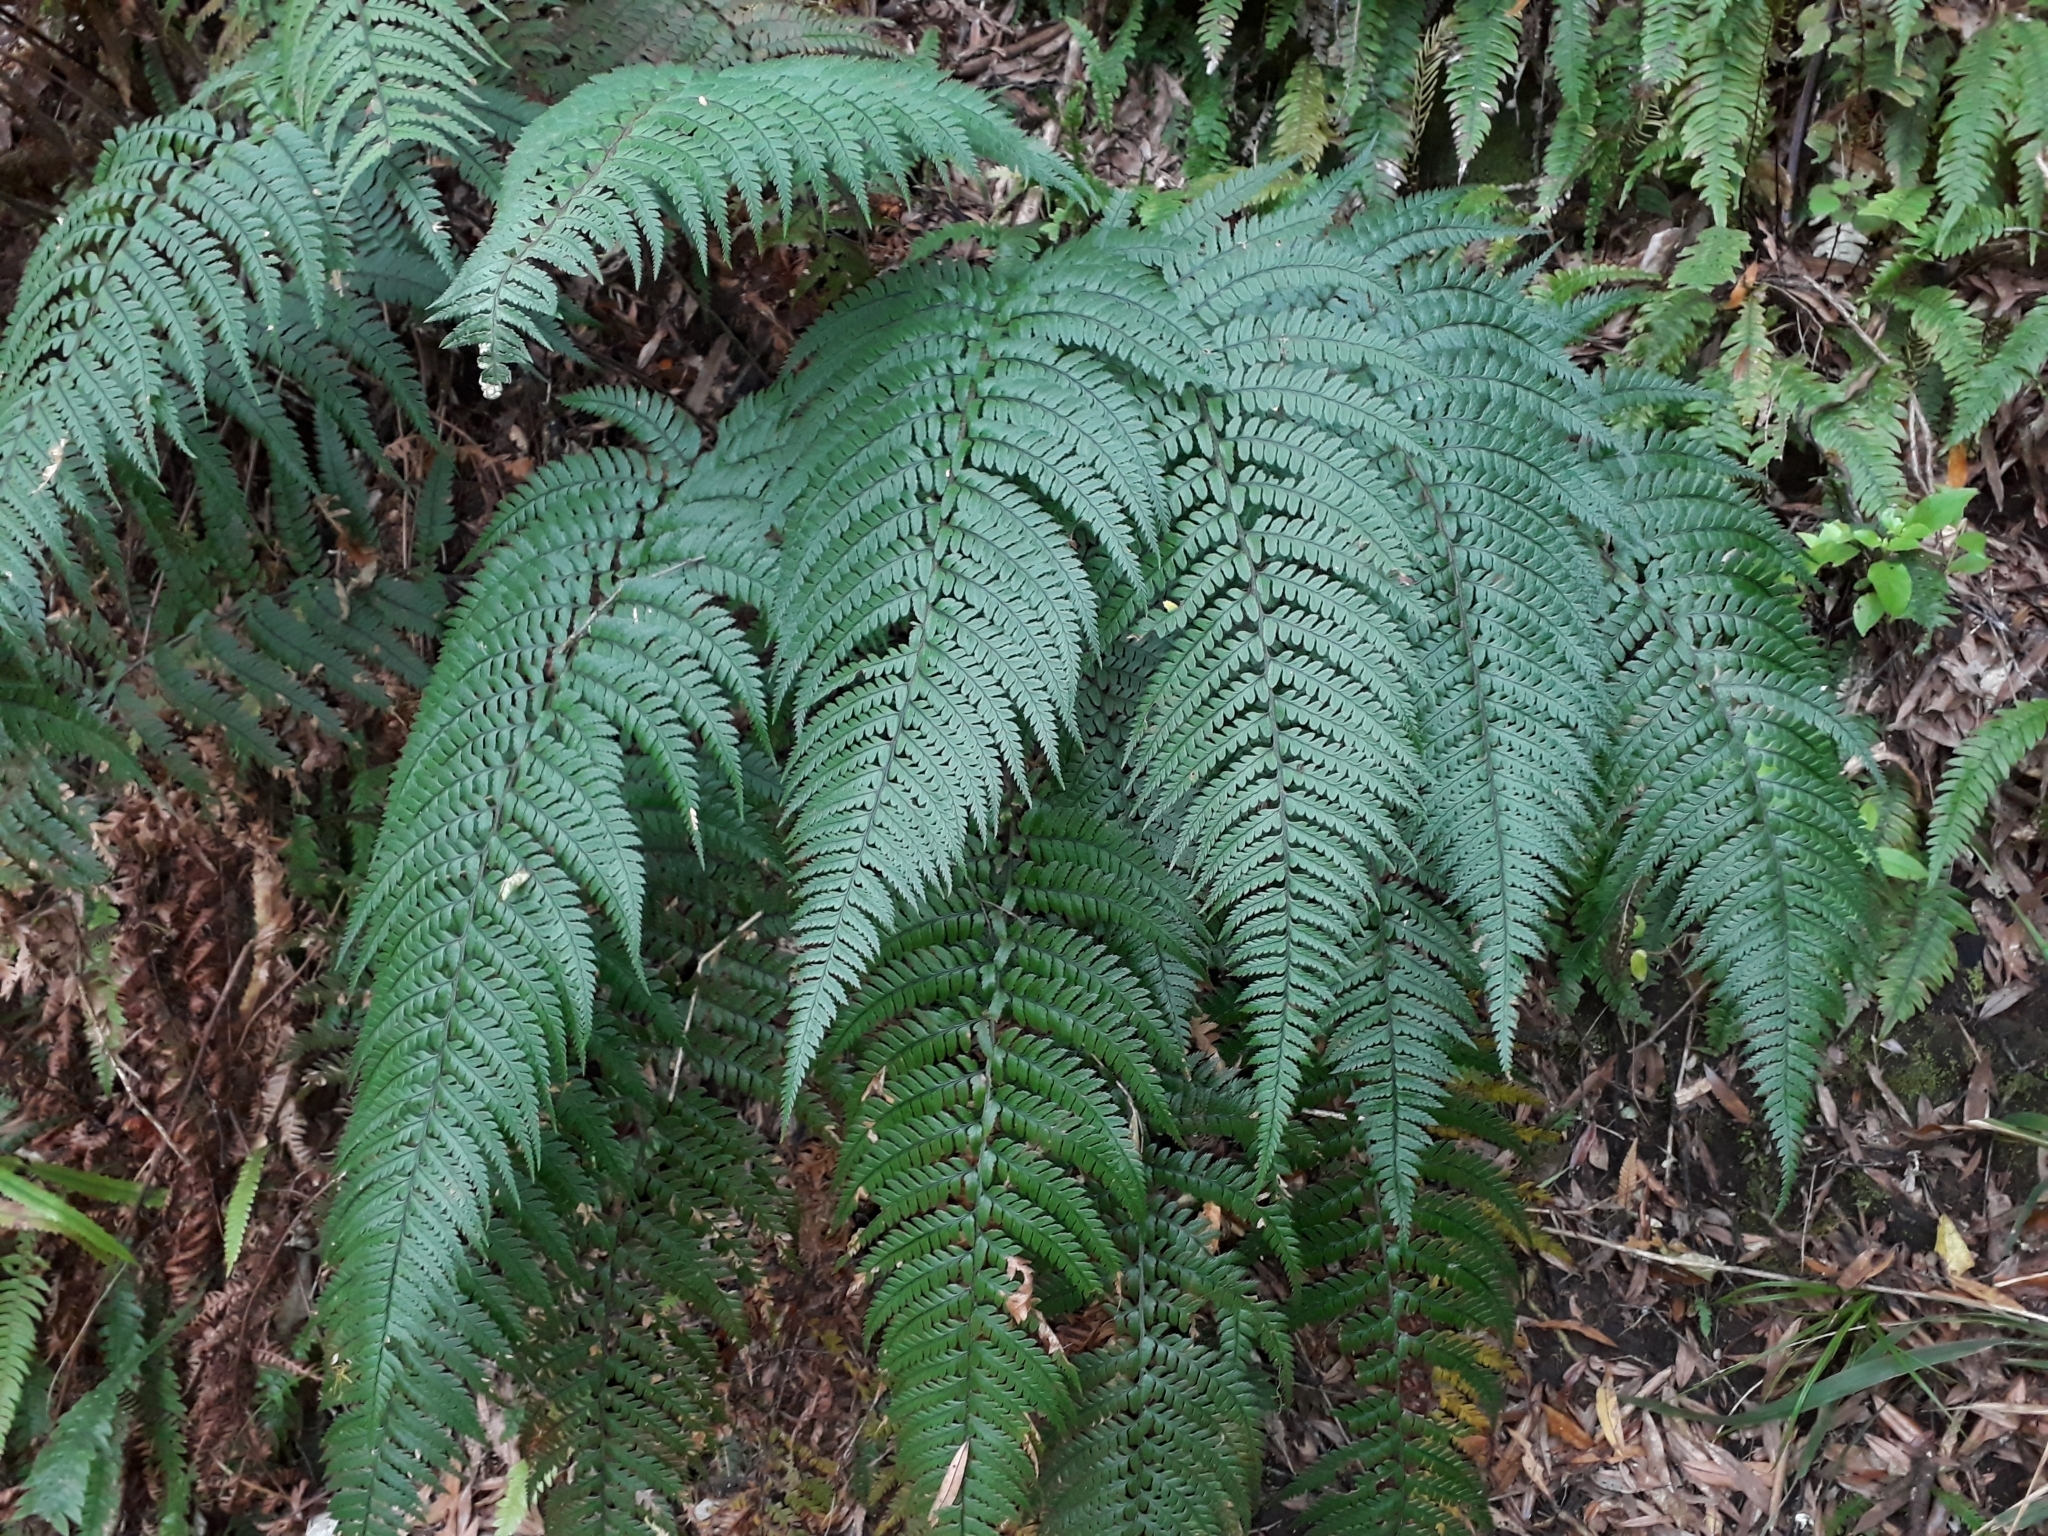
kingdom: Plantae
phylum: Tracheophyta
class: Polypodiopsida
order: Polypodiales
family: Dryopteridaceae
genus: Polystichum
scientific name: Polystichum wawranum
